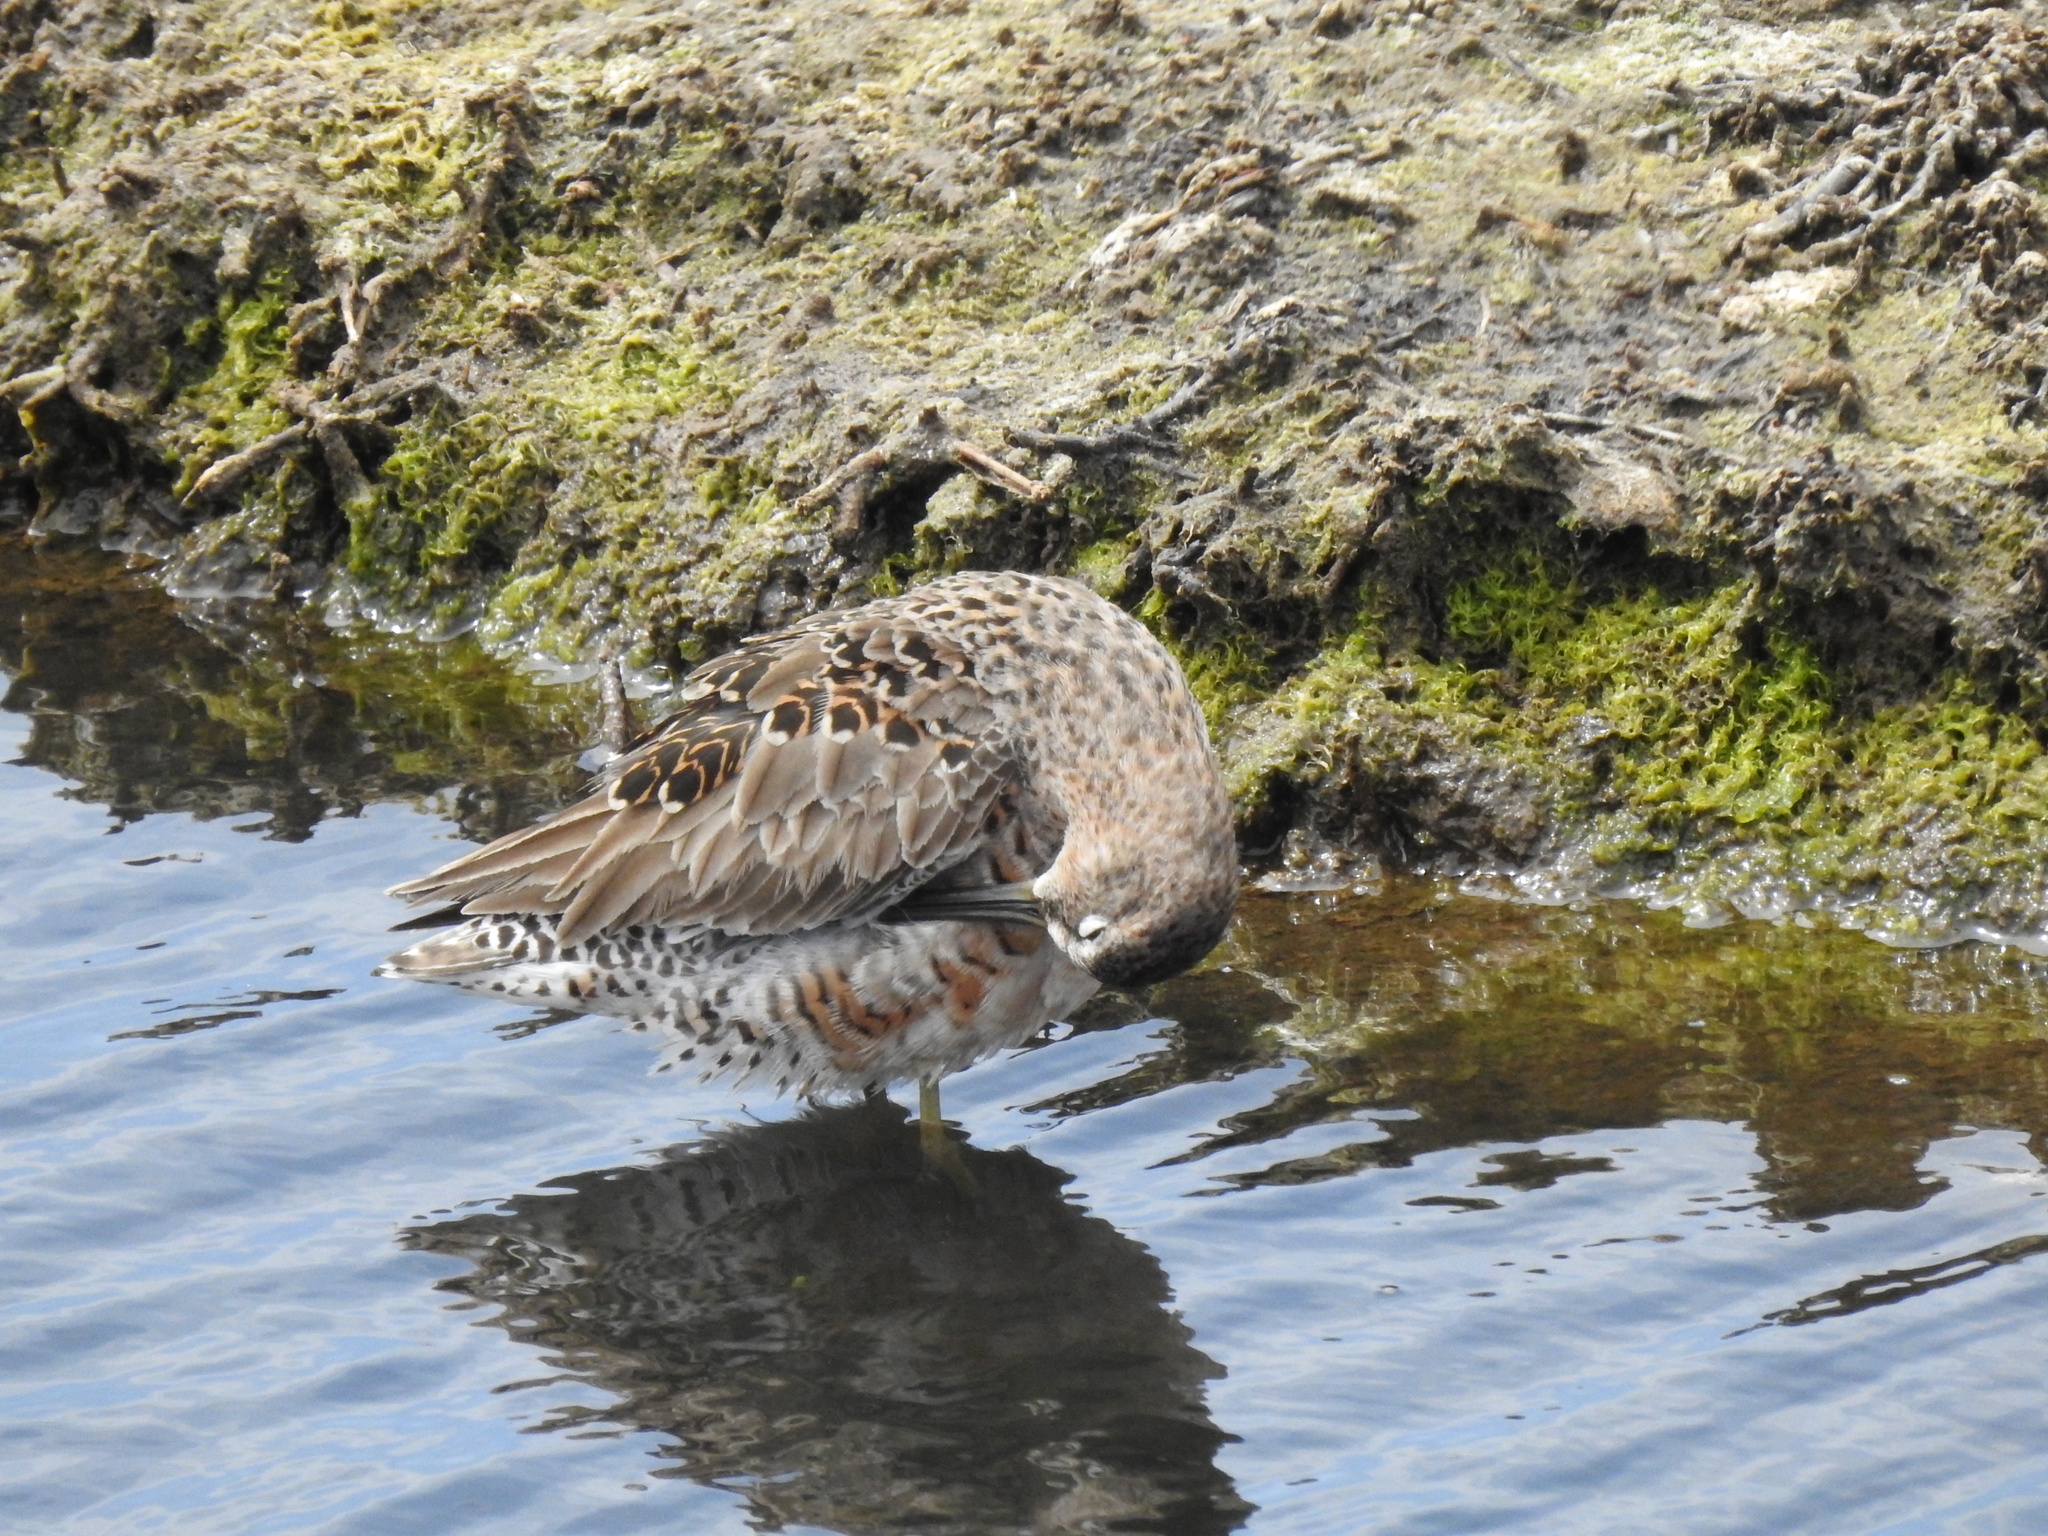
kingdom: Animalia
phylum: Chordata
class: Aves
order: Charadriiformes
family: Scolopacidae
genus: Limnodromus
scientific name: Limnodromus scolopaceus
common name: Long-billed dowitcher
